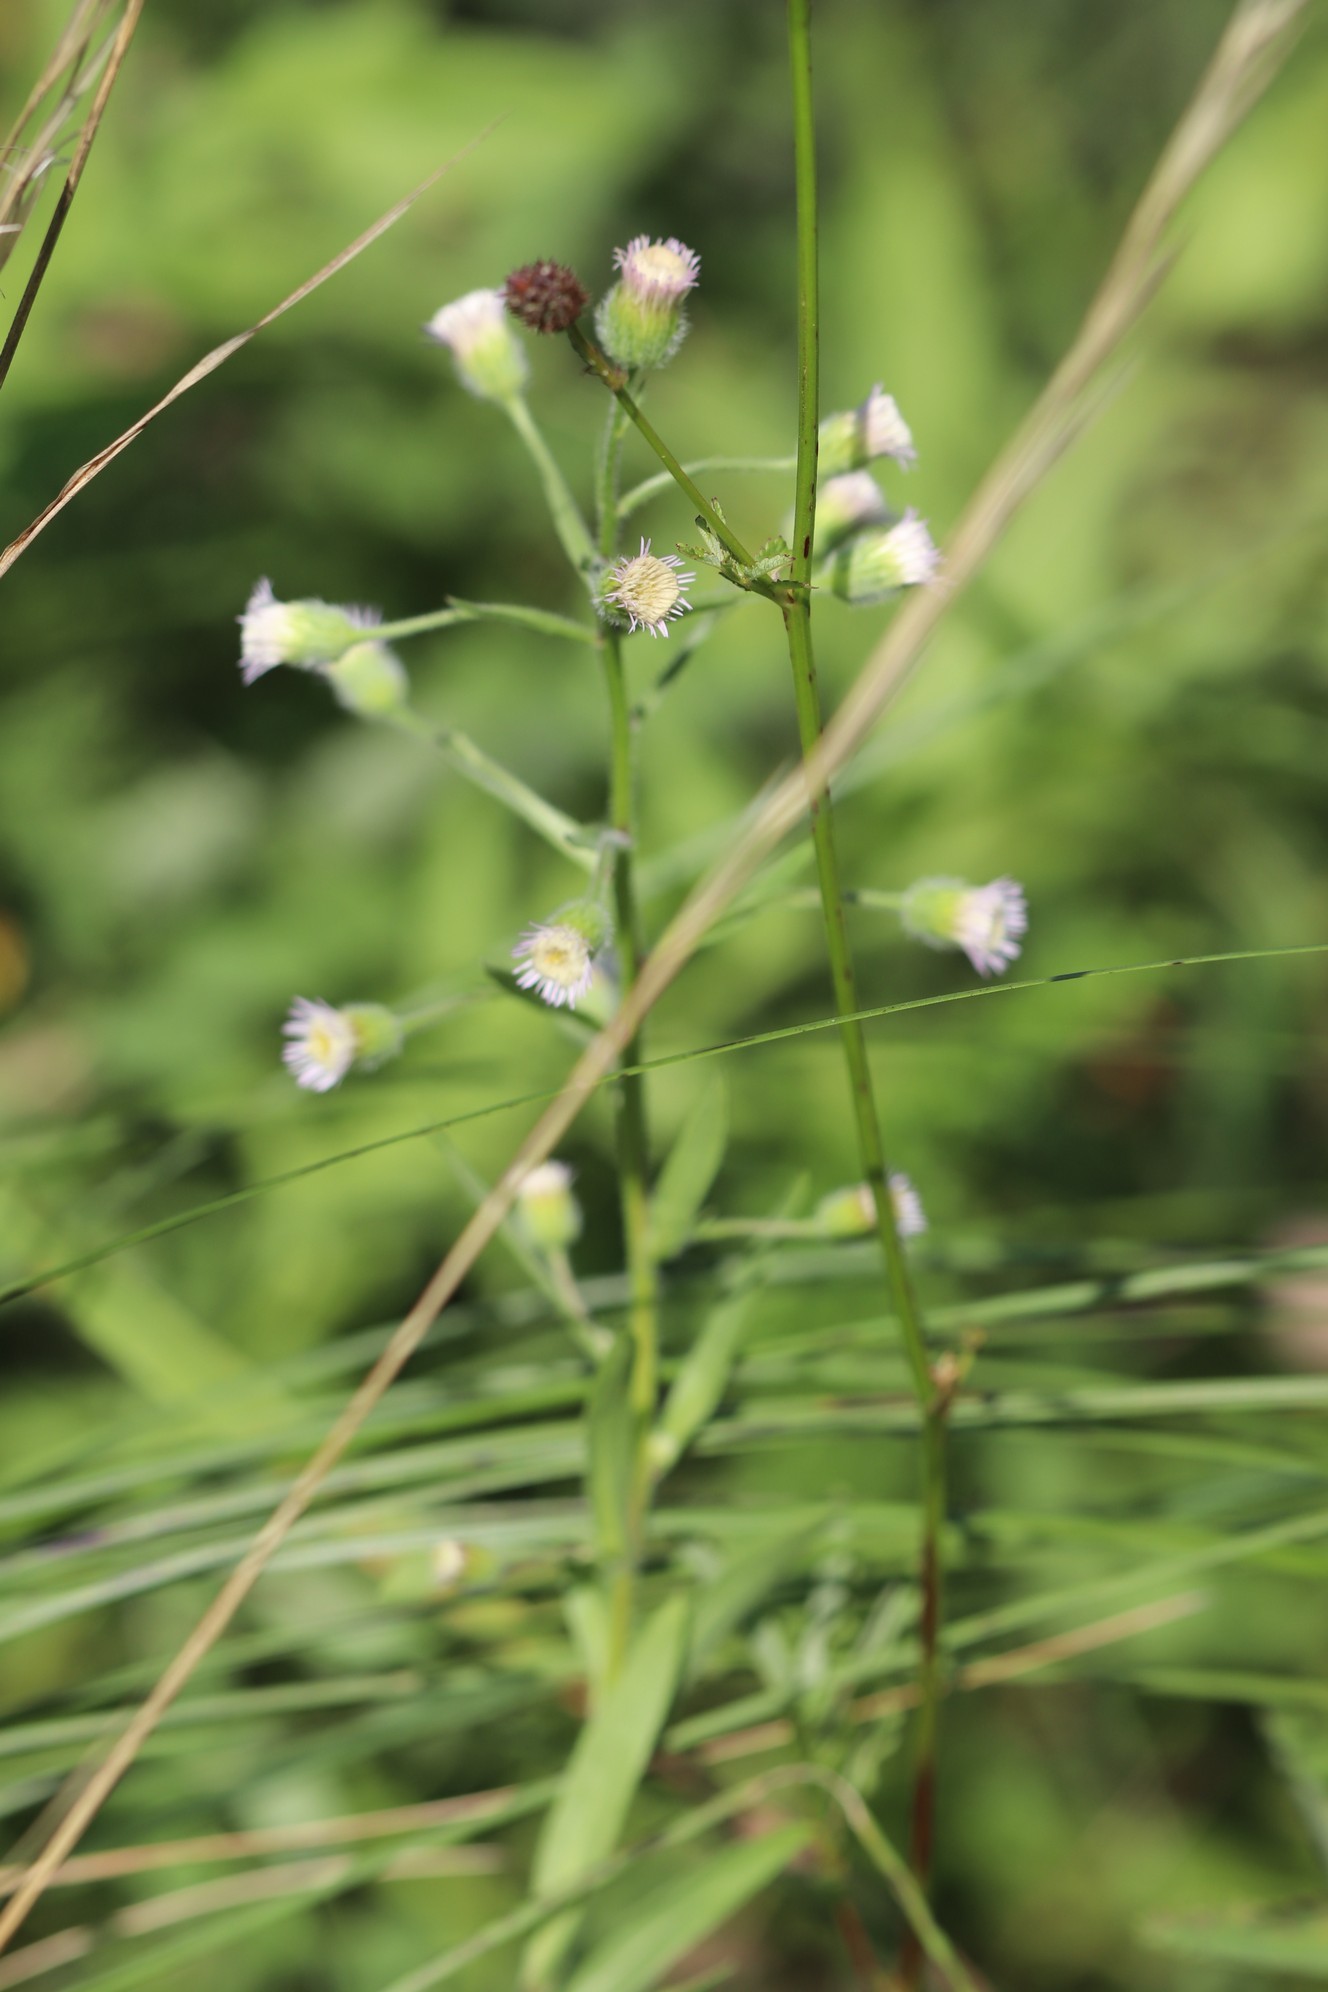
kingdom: Plantae
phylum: Tracheophyta
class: Magnoliopsida
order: Asterales
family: Asteraceae
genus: Erigeron
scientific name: Erigeron acris
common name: Blue fleabane
